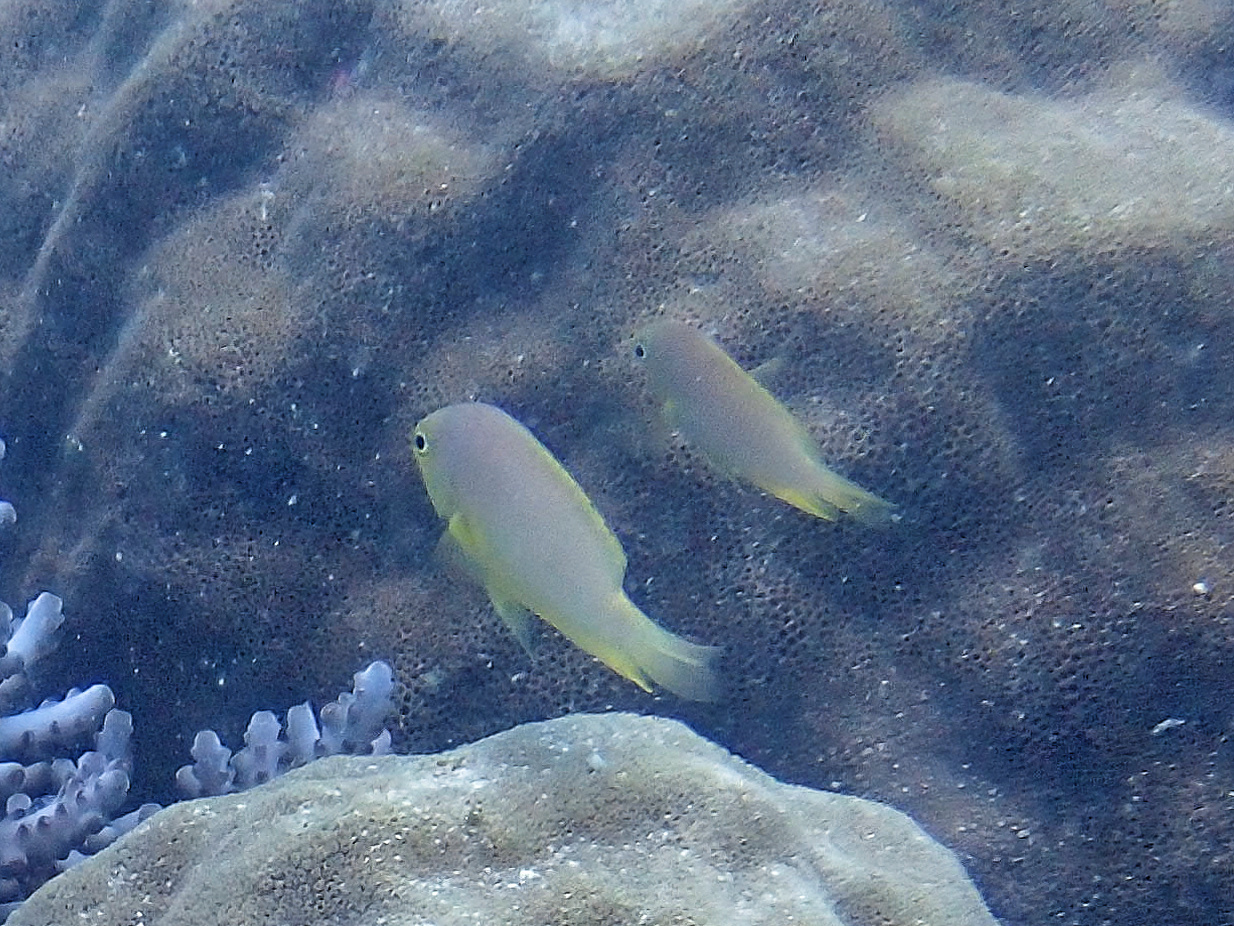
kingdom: Animalia
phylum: Chordata
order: Perciformes
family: Pomacentridae
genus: Pomacentrus
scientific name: Pomacentrus amboinensis
